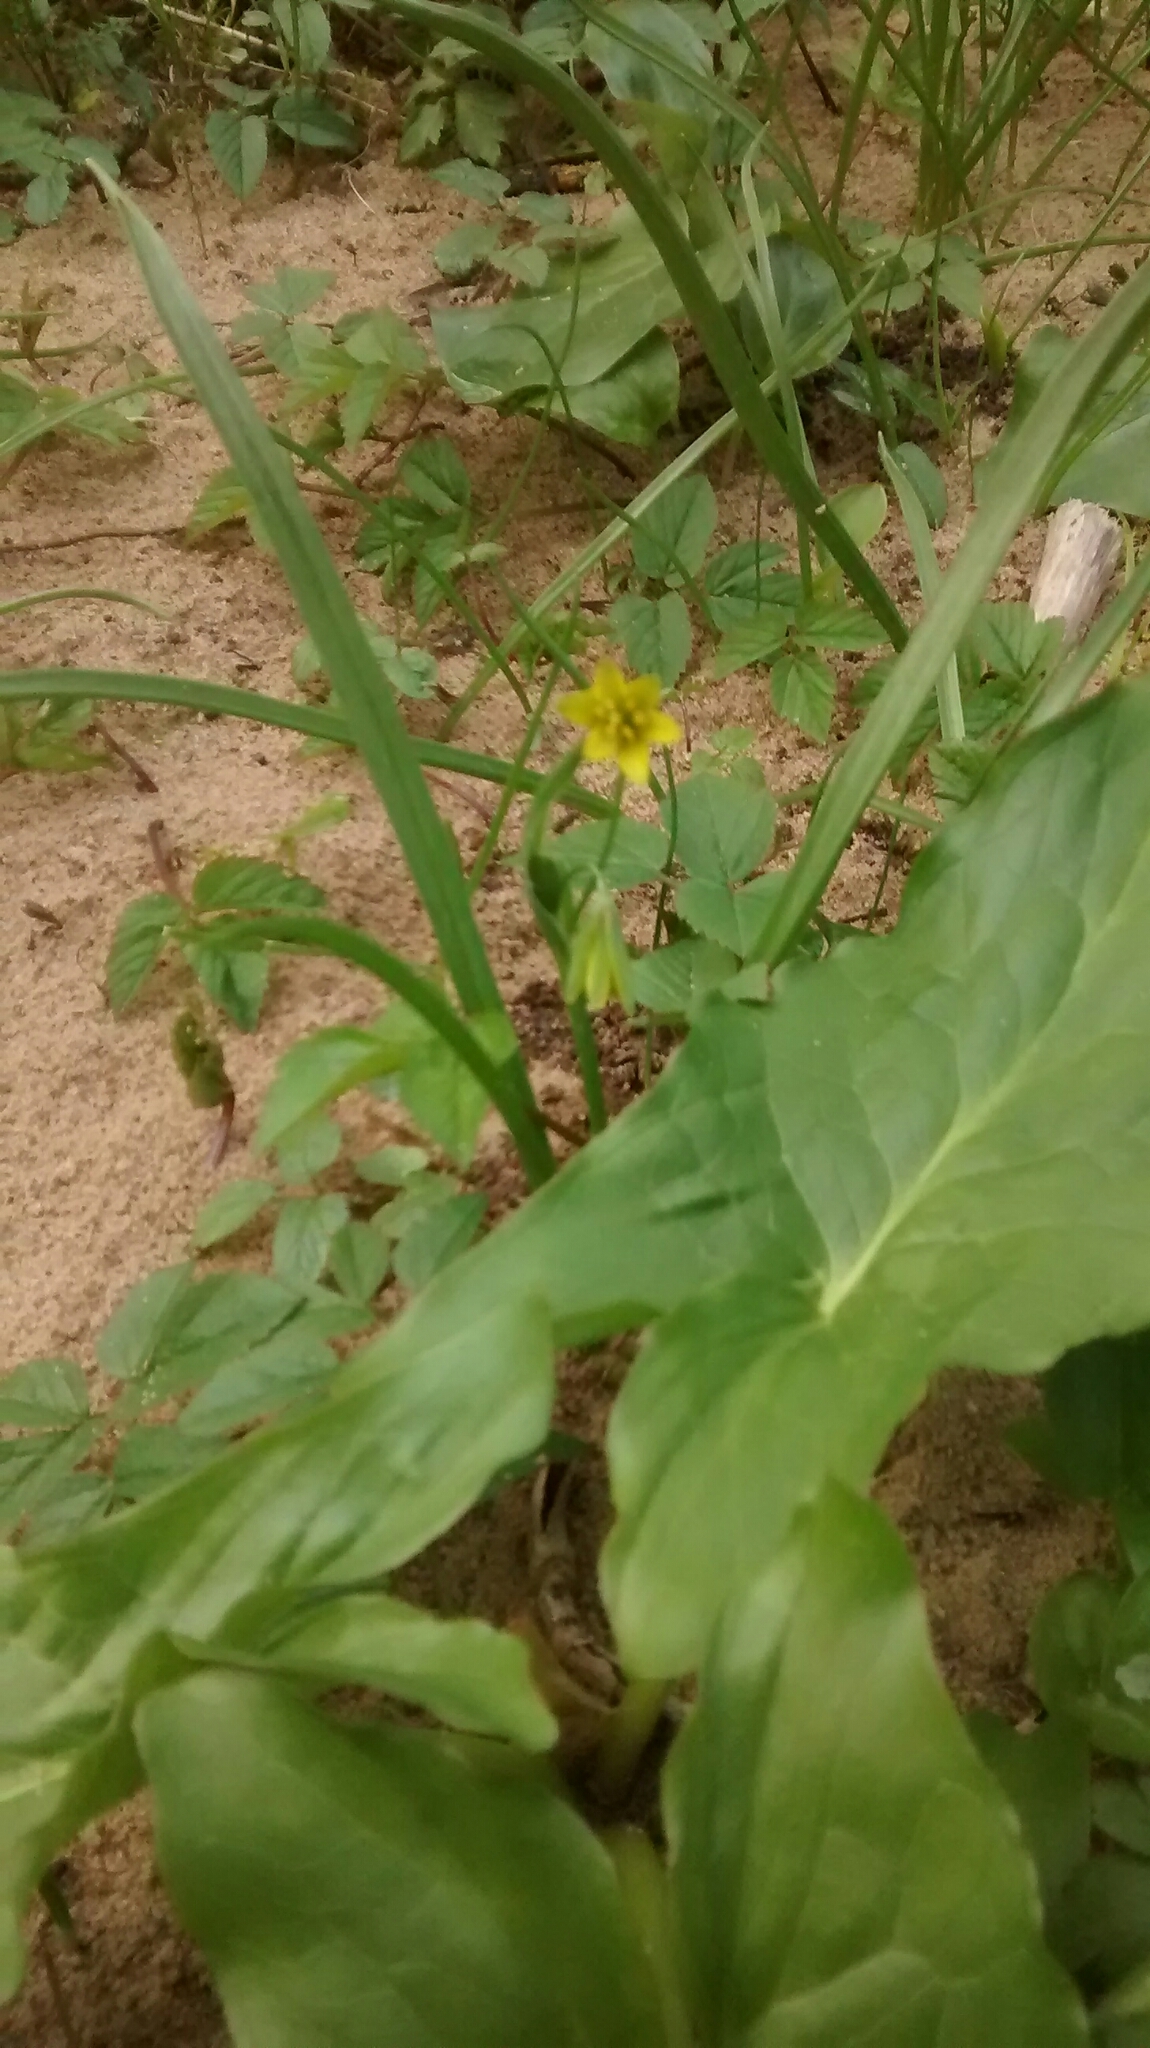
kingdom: Plantae
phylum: Tracheophyta
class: Liliopsida
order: Liliales
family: Liliaceae
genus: Gagea
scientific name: Gagea lutea
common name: Yellow star-of-bethlehem
